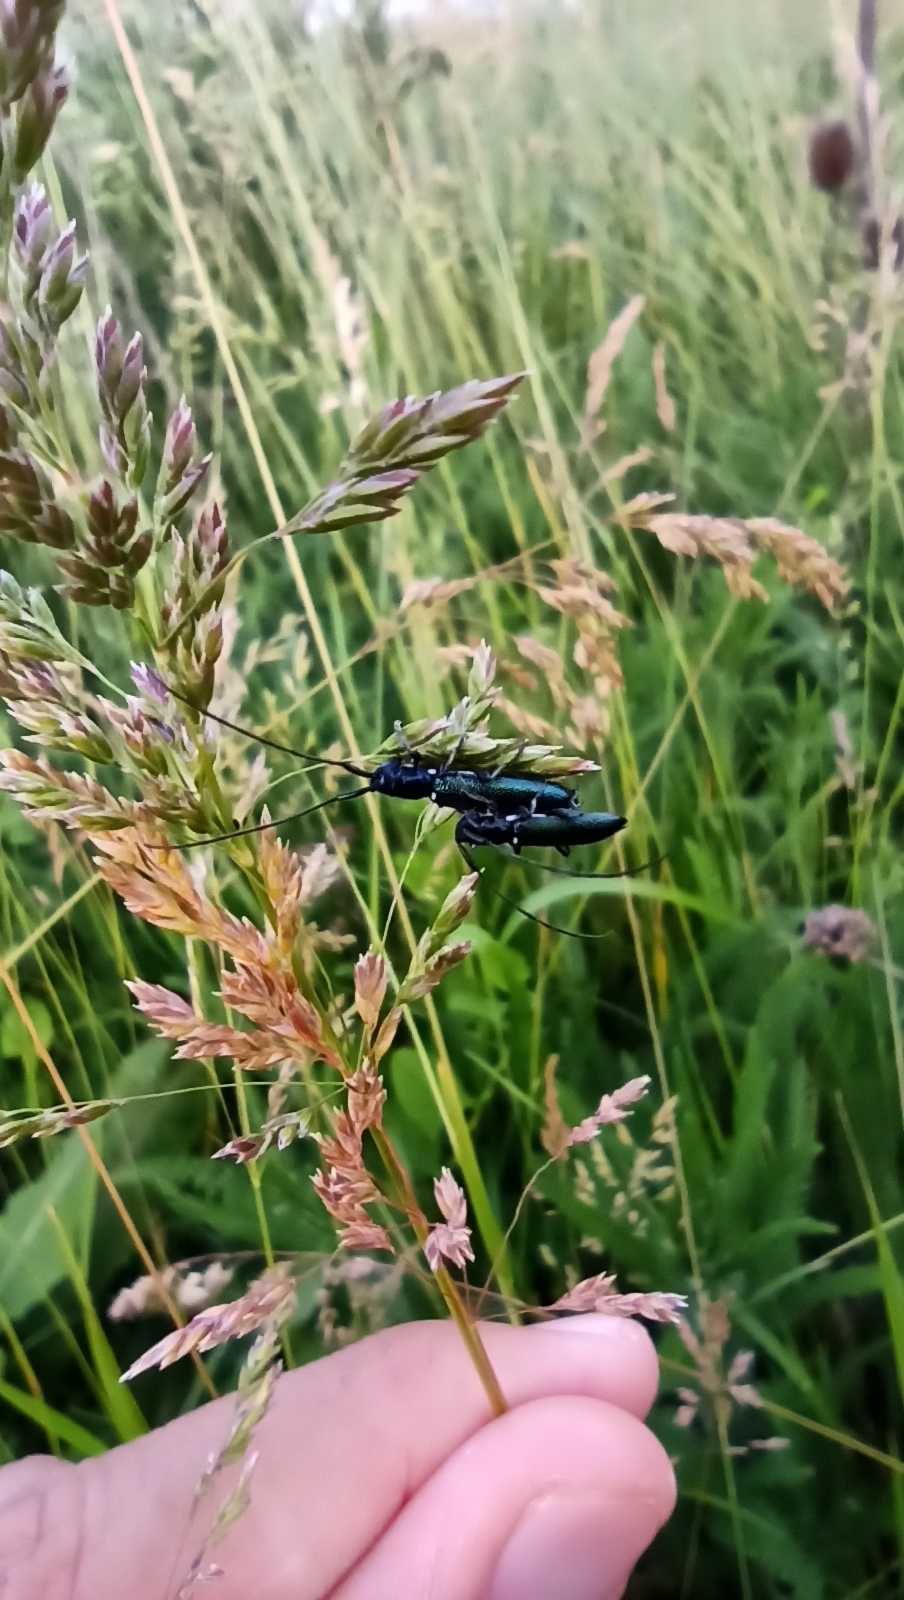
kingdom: Animalia
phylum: Arthropoda
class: Insecta
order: Coleoptera
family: Cerambycidae
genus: Agapanthiola
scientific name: Agapanthiola leucaspis
